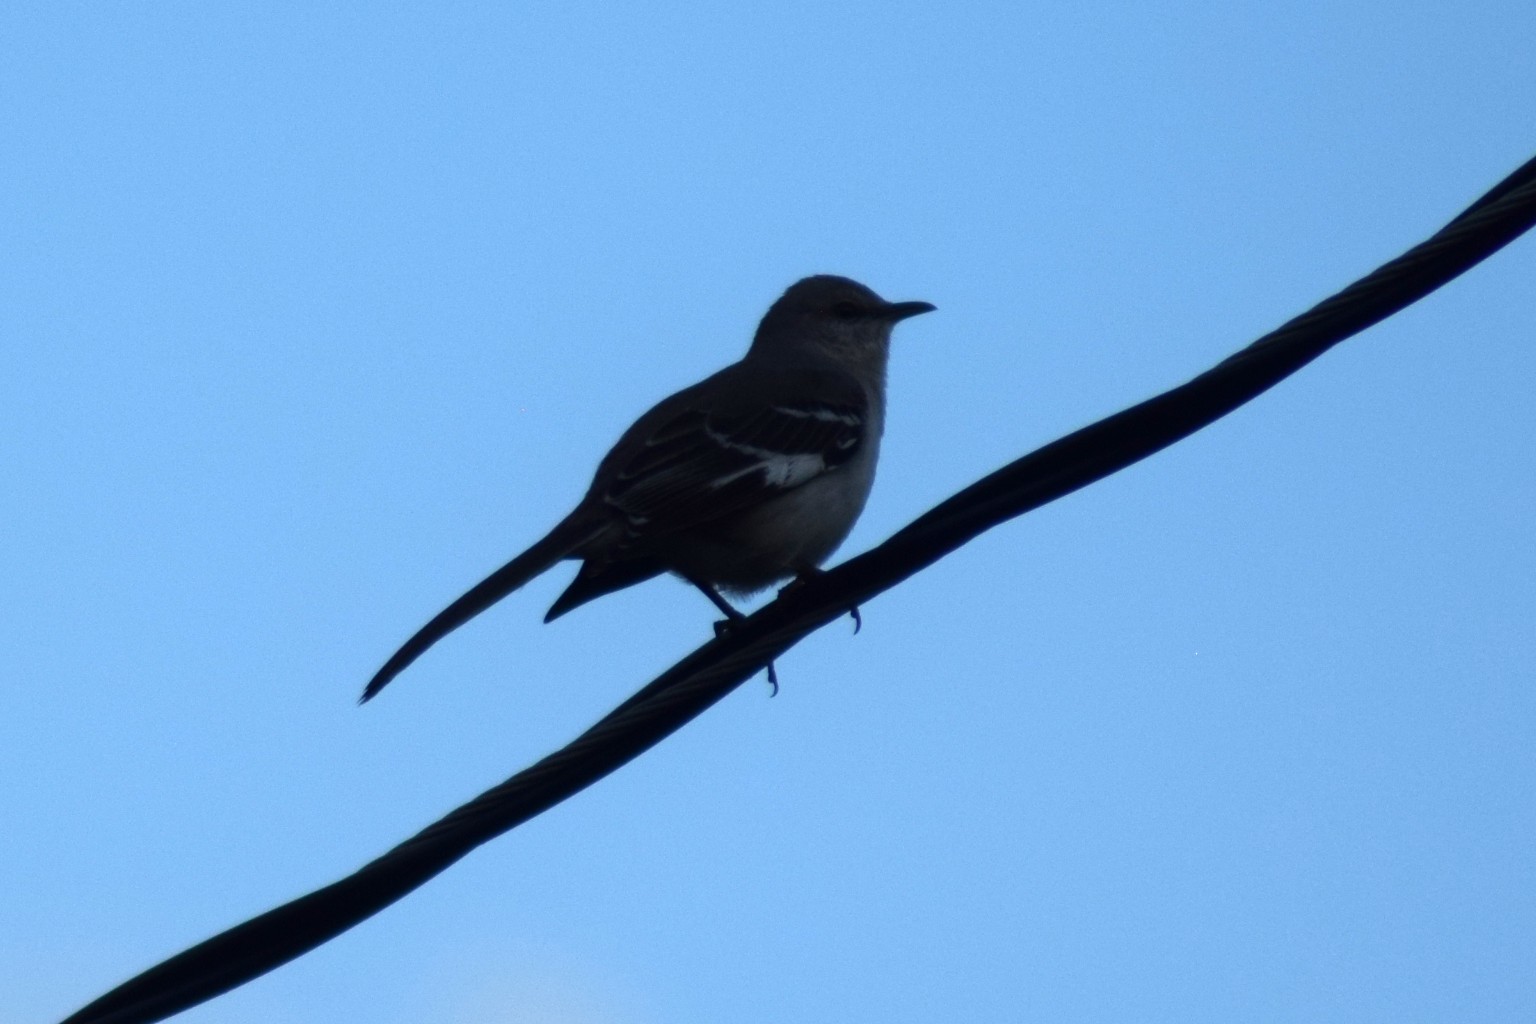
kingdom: Animalia
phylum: Chordata
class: Aves
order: Passeriformes
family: Mimidae
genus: Mimus
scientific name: Mimus polyglottos
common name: Northern mockingbird
